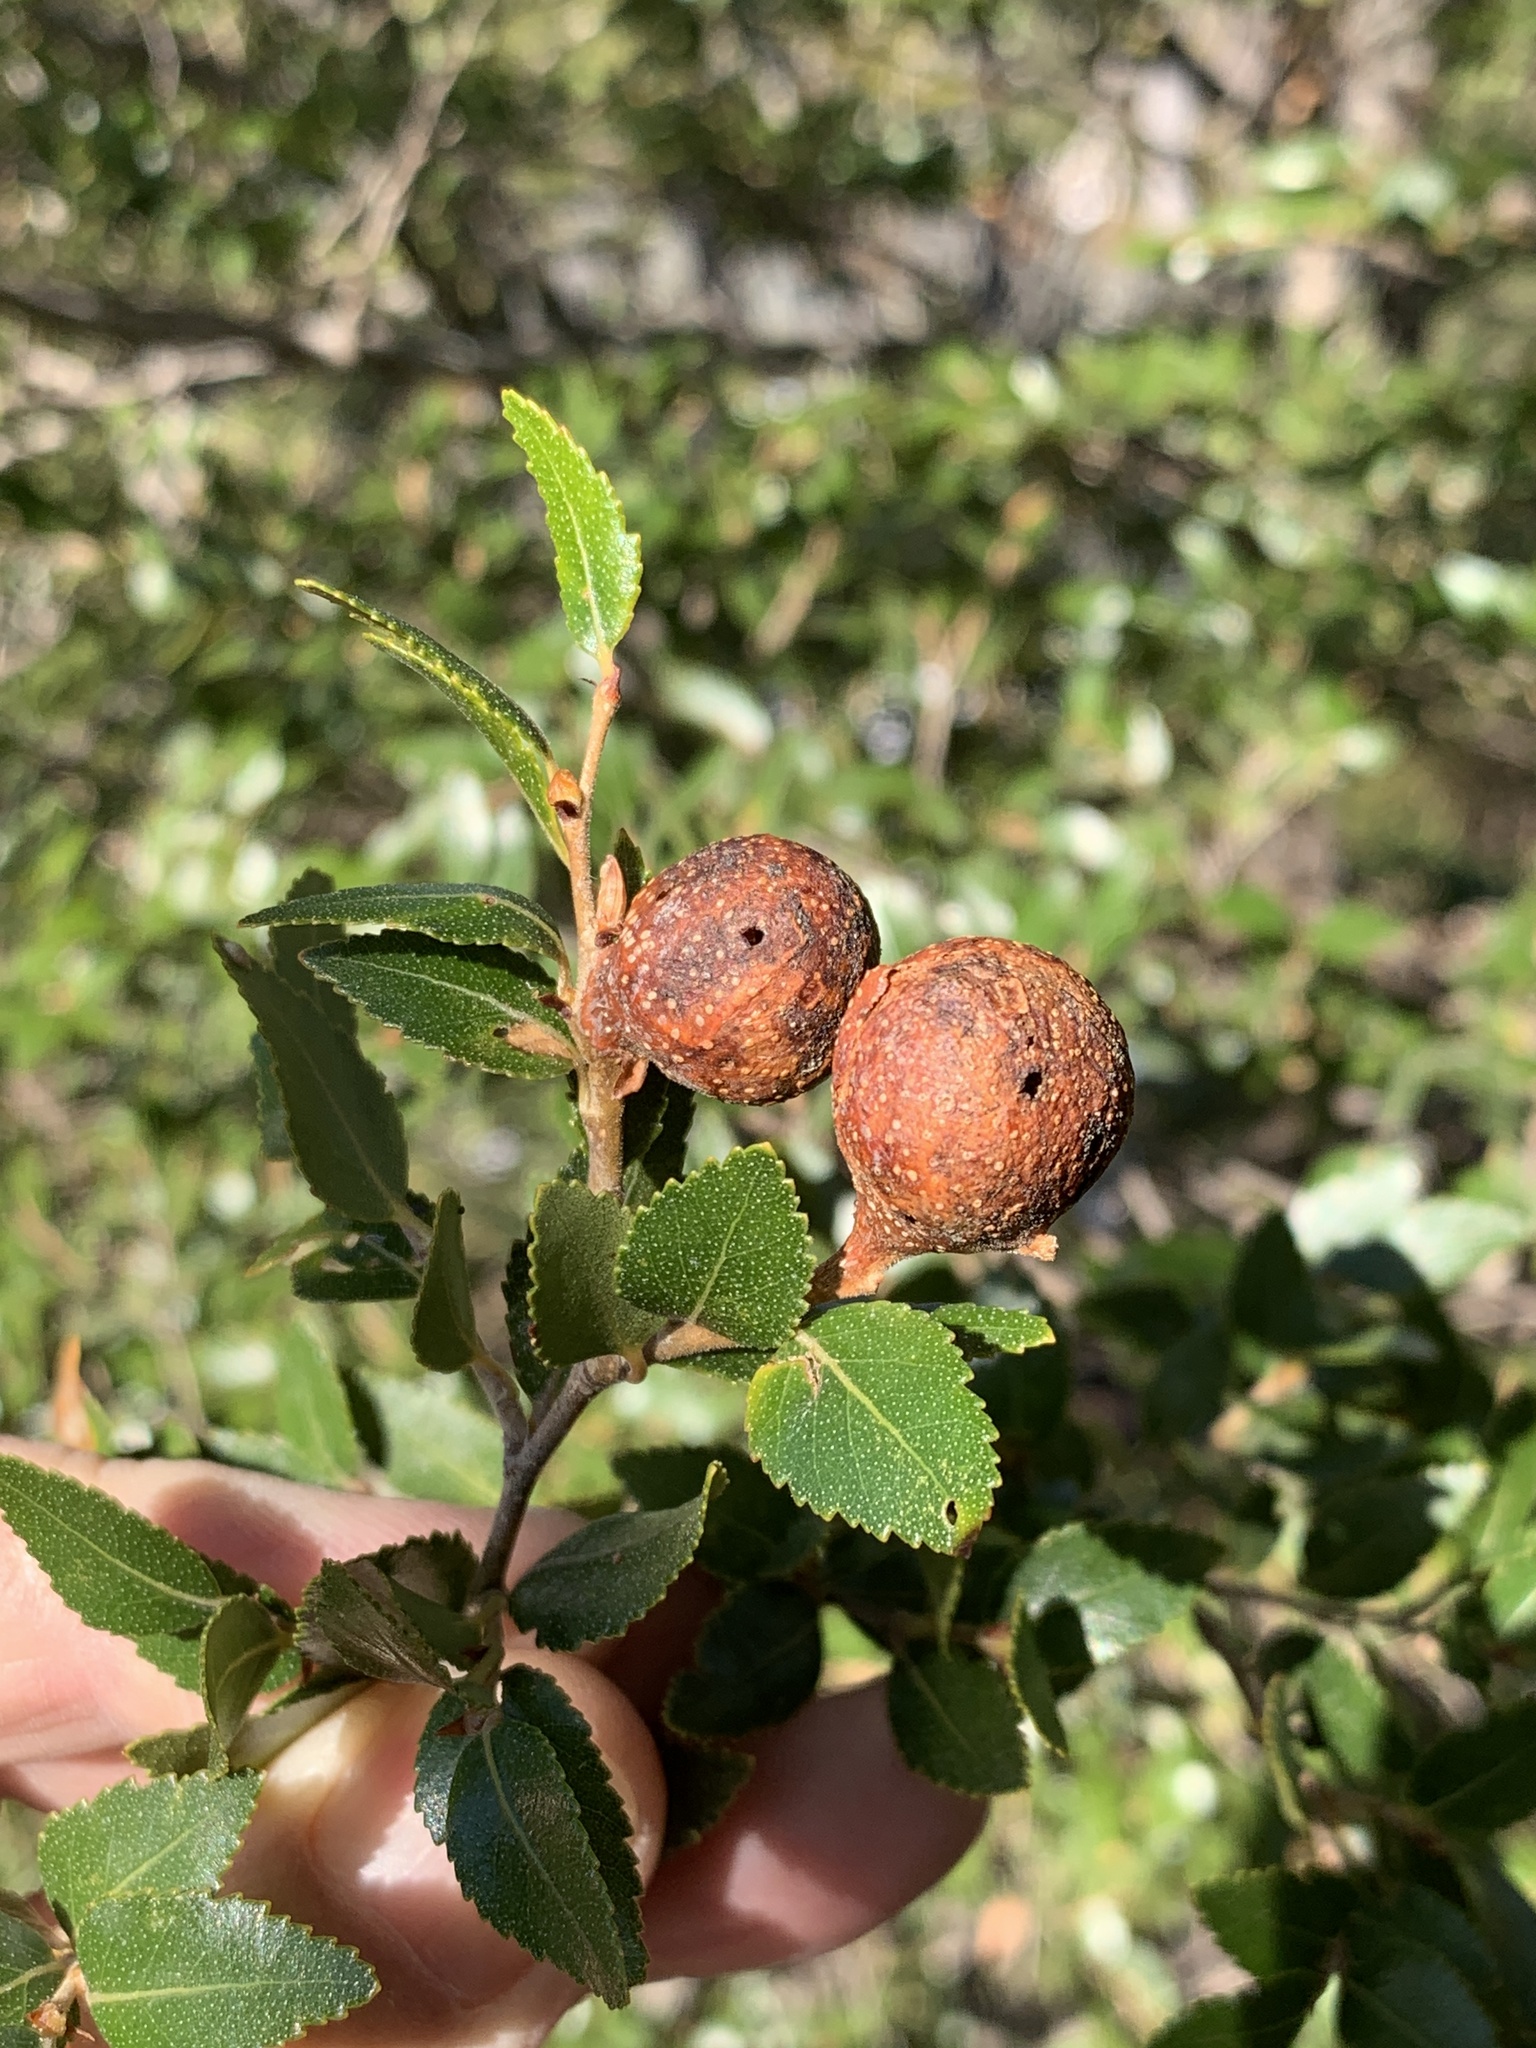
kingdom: Plantae
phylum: Tracheophyta
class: Magnoliopsida
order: Fagales
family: Nothofagaceae
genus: Nothofagus
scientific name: Nothofagus dombeyi
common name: Coigue
